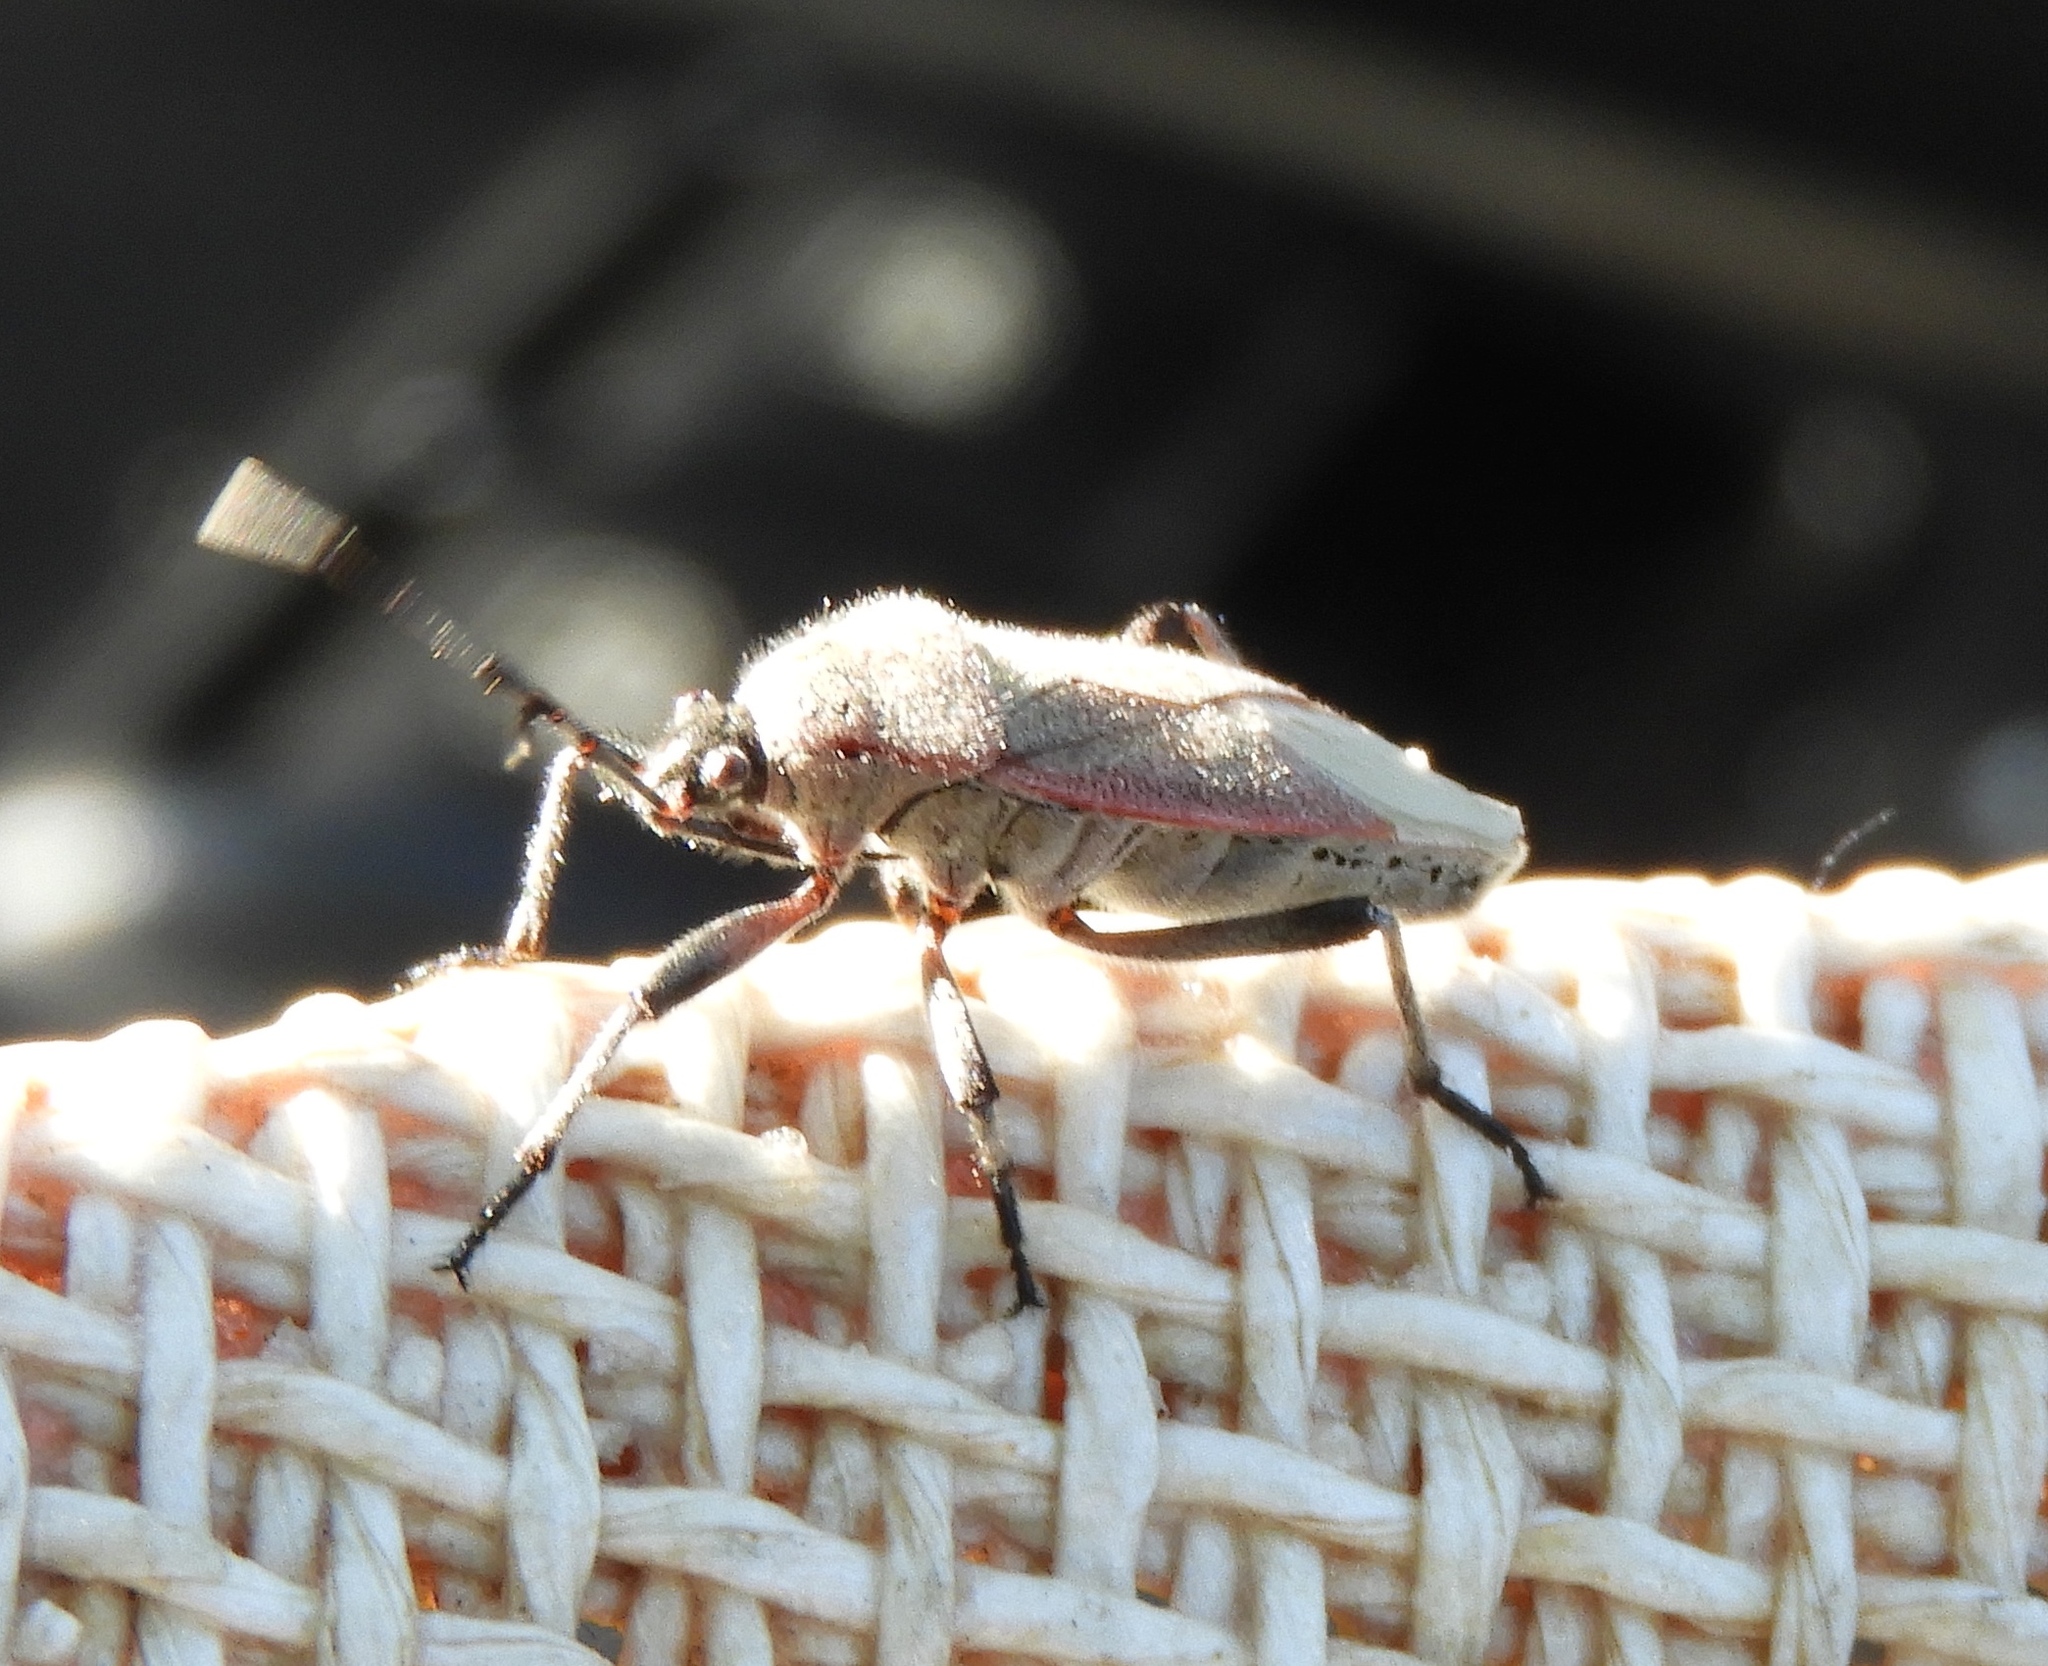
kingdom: Animalia
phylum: Arthropoda
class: Insecta
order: Hemiptera
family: Largidae
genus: Largus
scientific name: Largus
